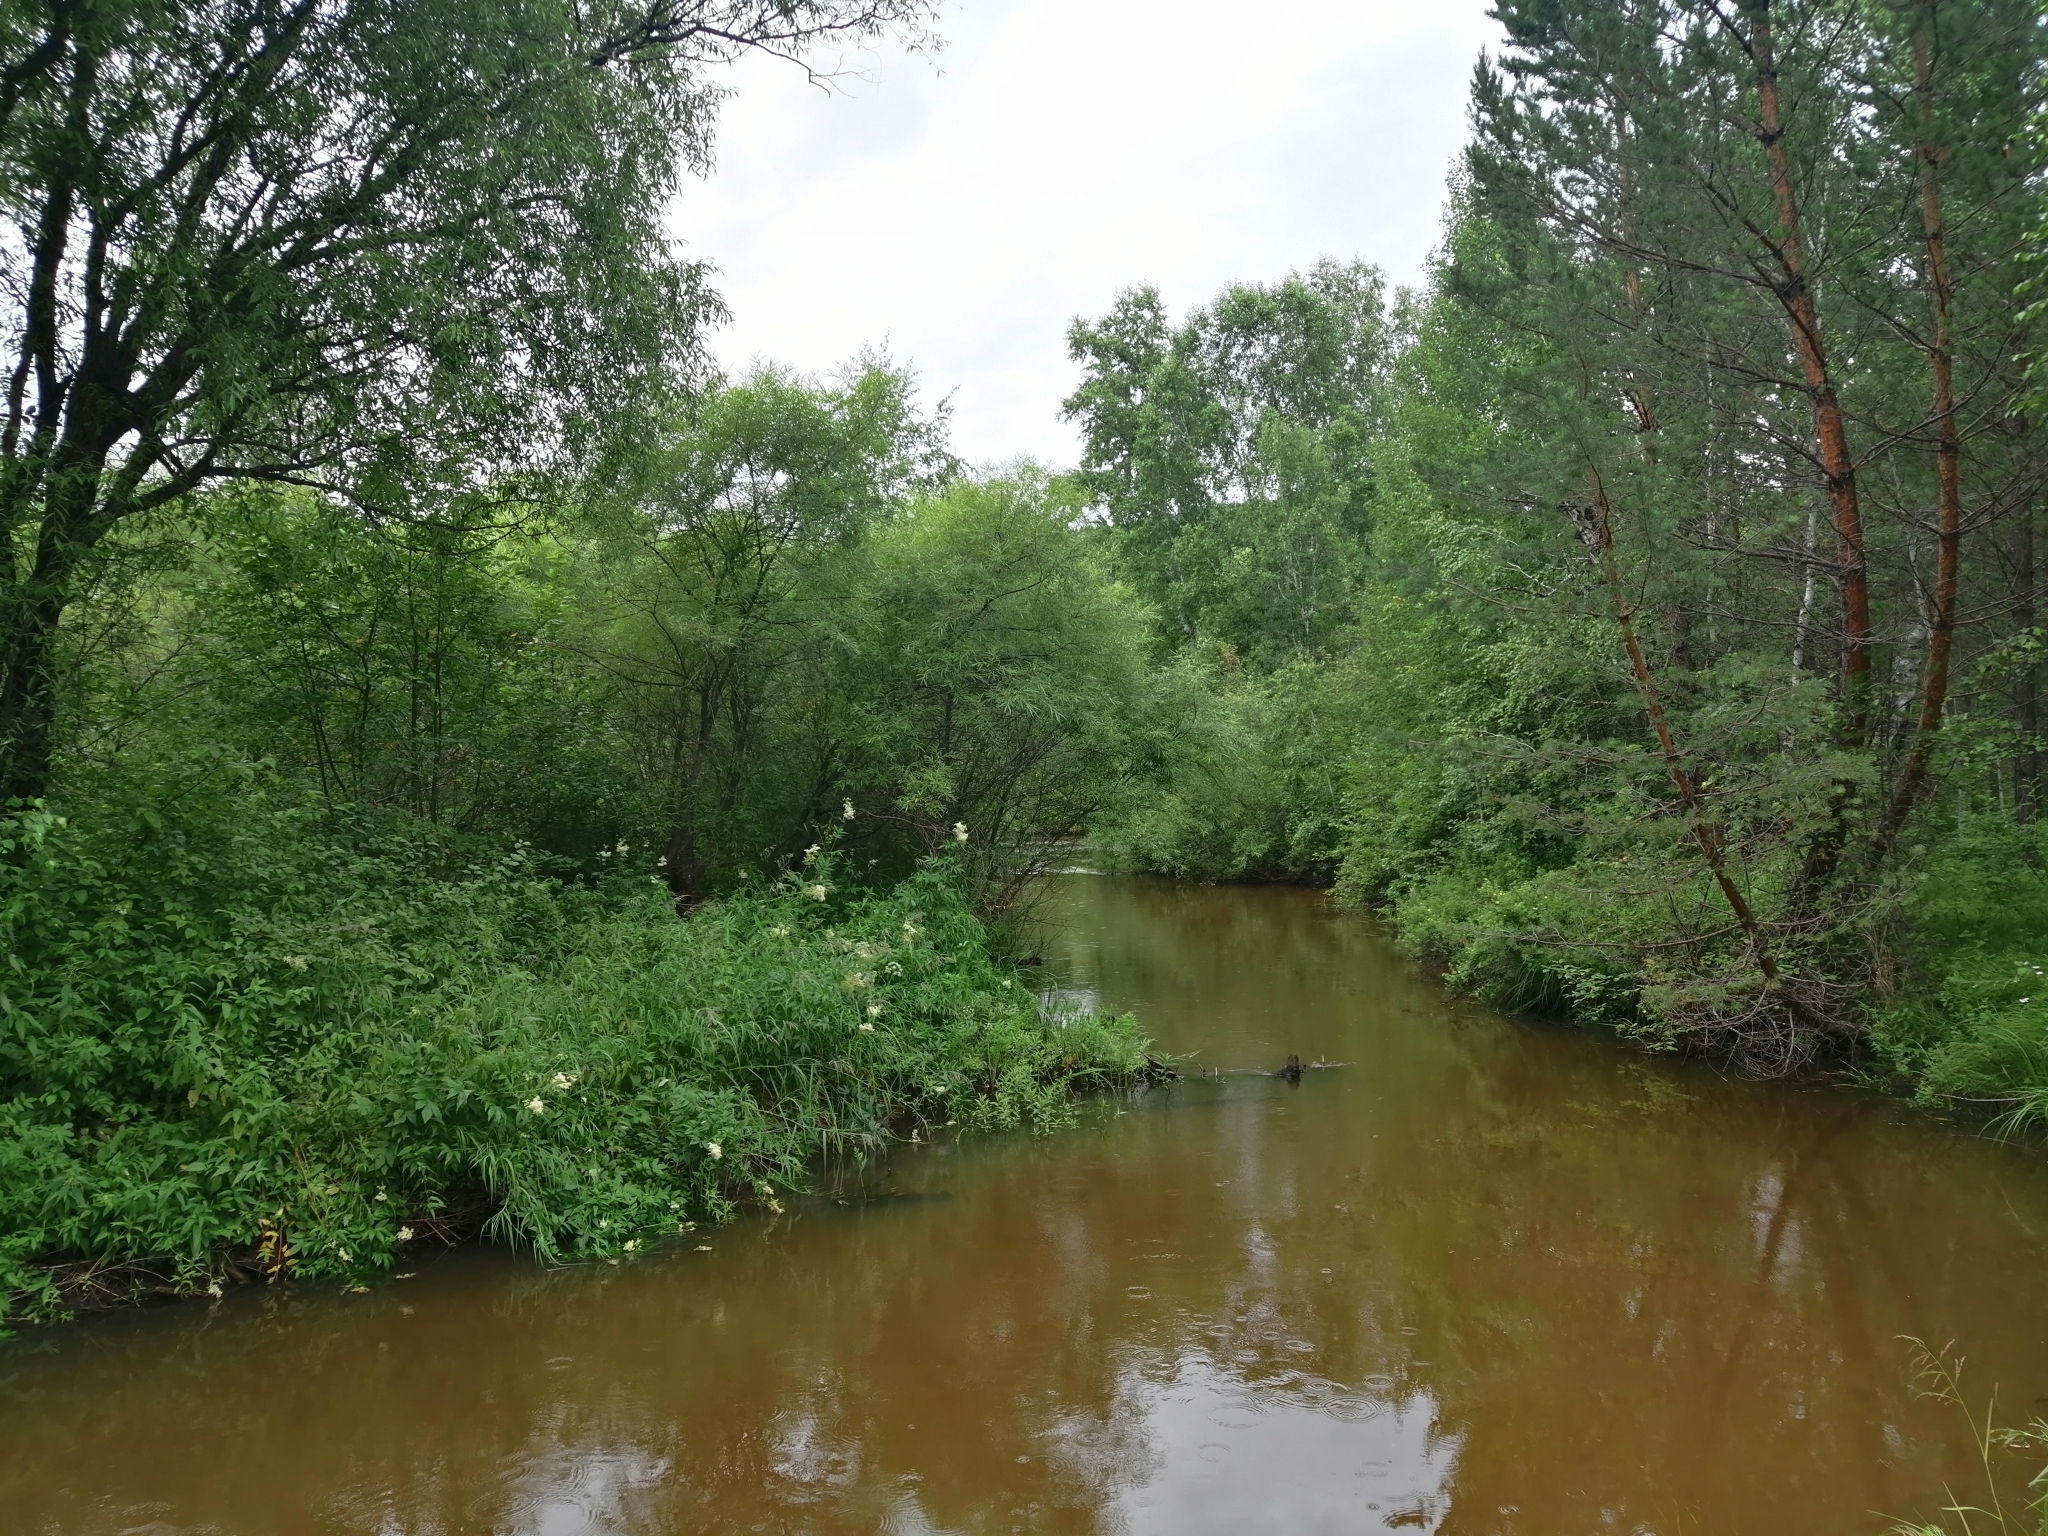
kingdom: Plantae
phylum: Tracheophyta
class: Pinopsida
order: Pinales
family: Pinaceae
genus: Pinus
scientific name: Pinus sylvestris
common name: Scots pine
